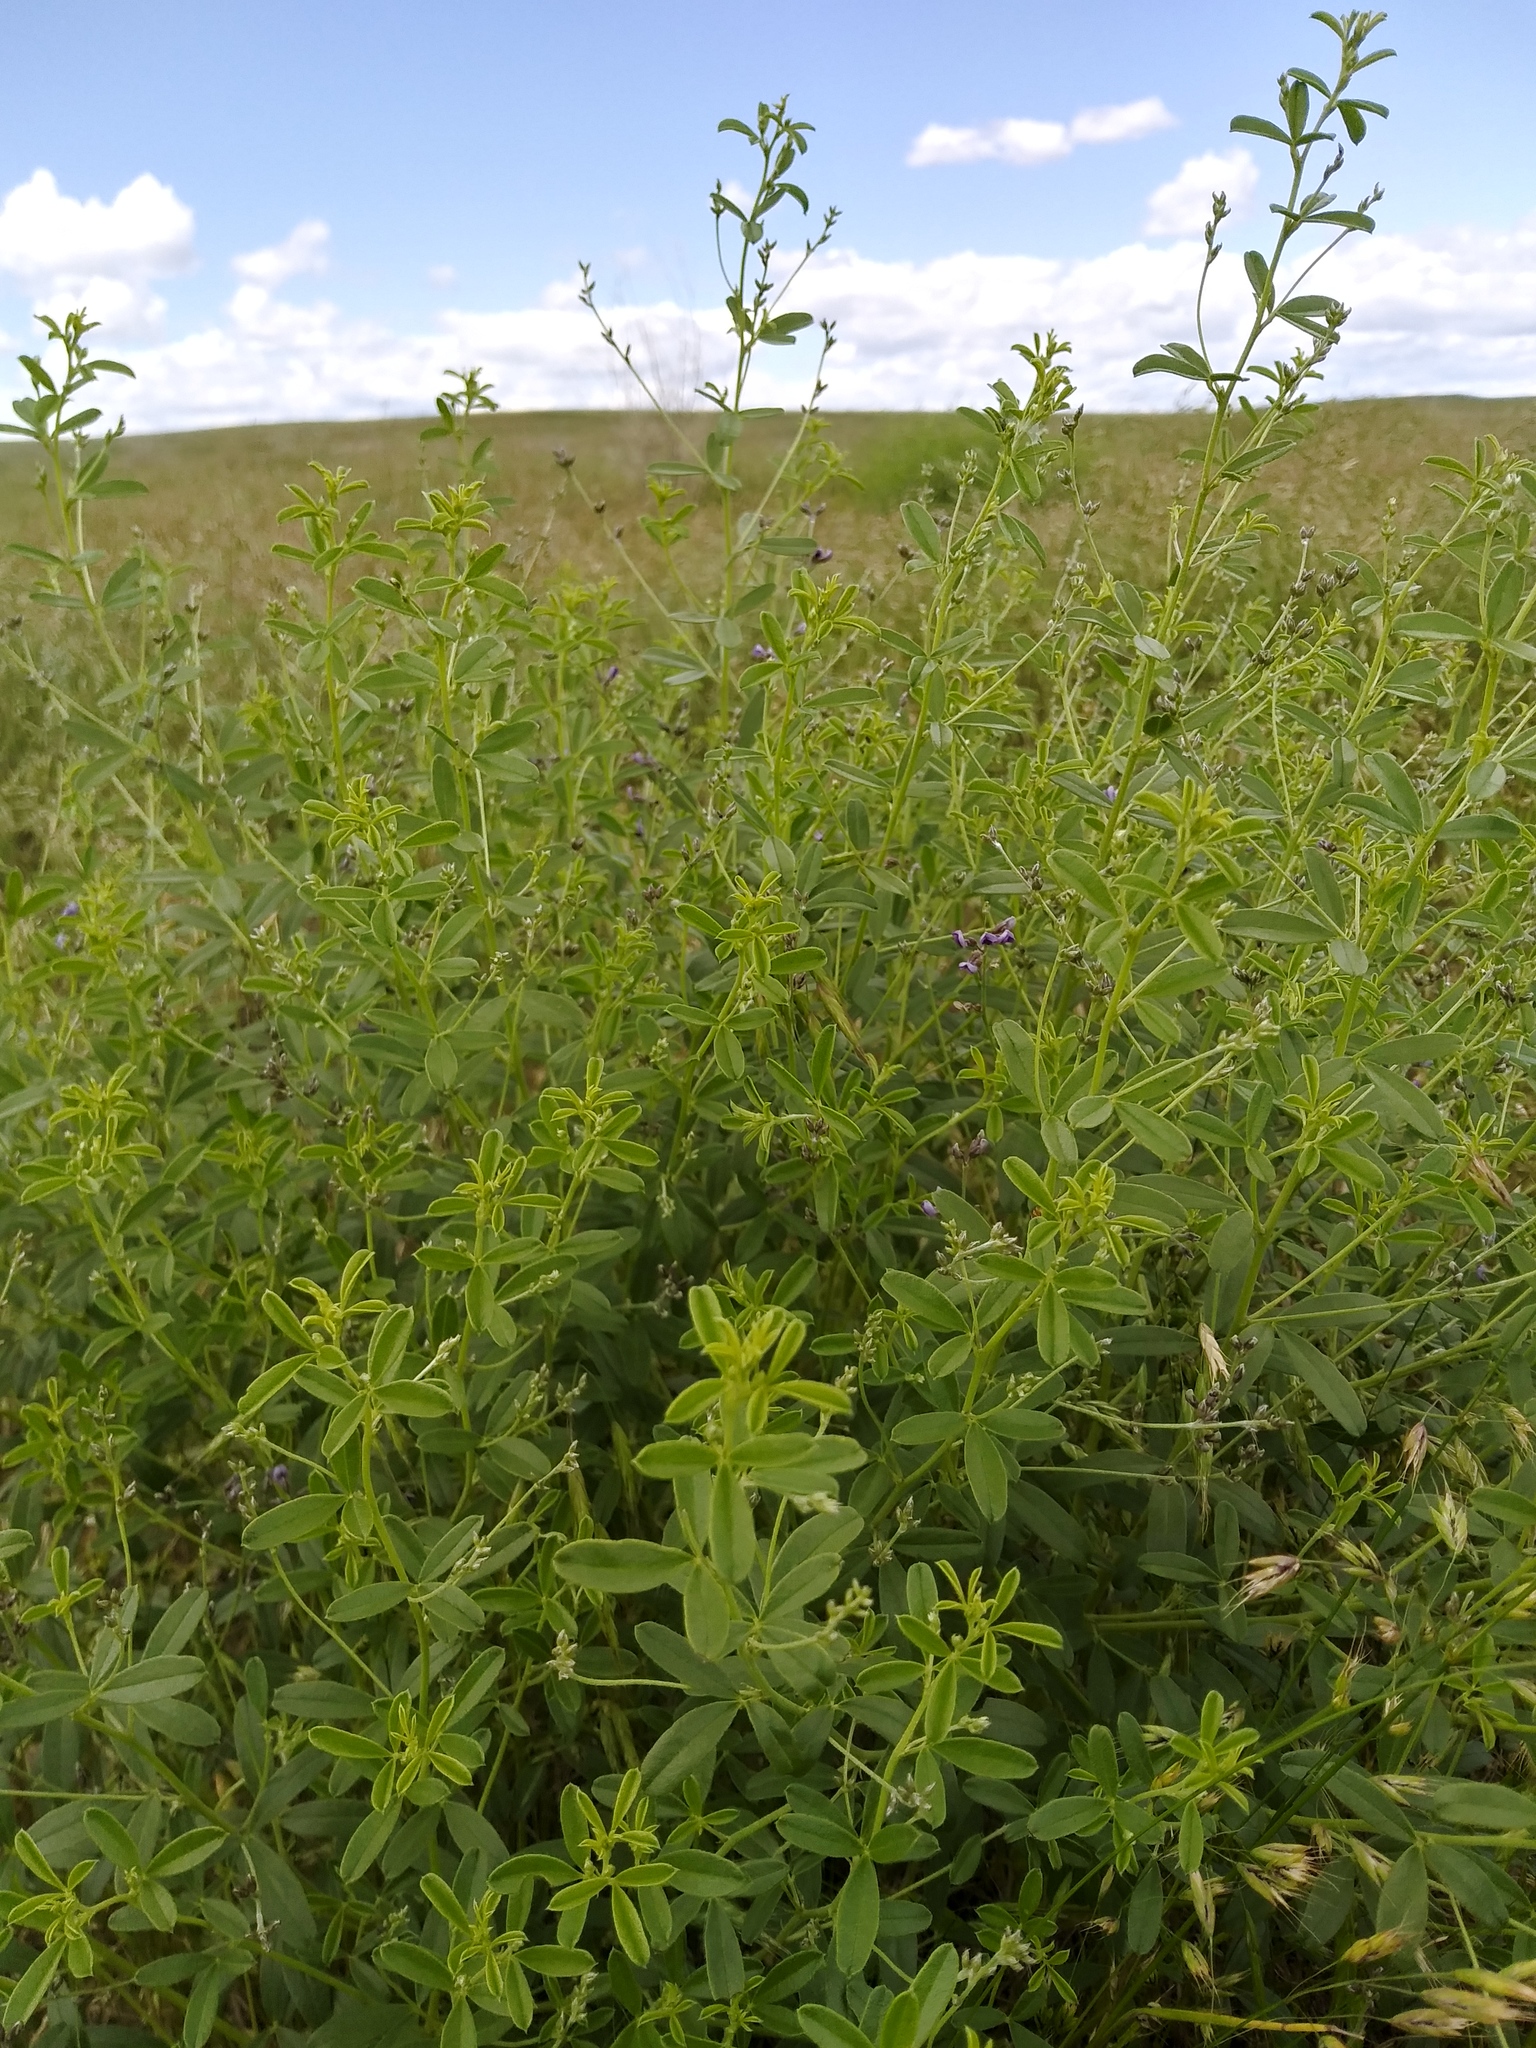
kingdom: Plantae
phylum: Tracheophyta
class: Magnoliopsida
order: Fabales
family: Fabaceae
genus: Pediomelum
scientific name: Pediomelum tenuiflorum
